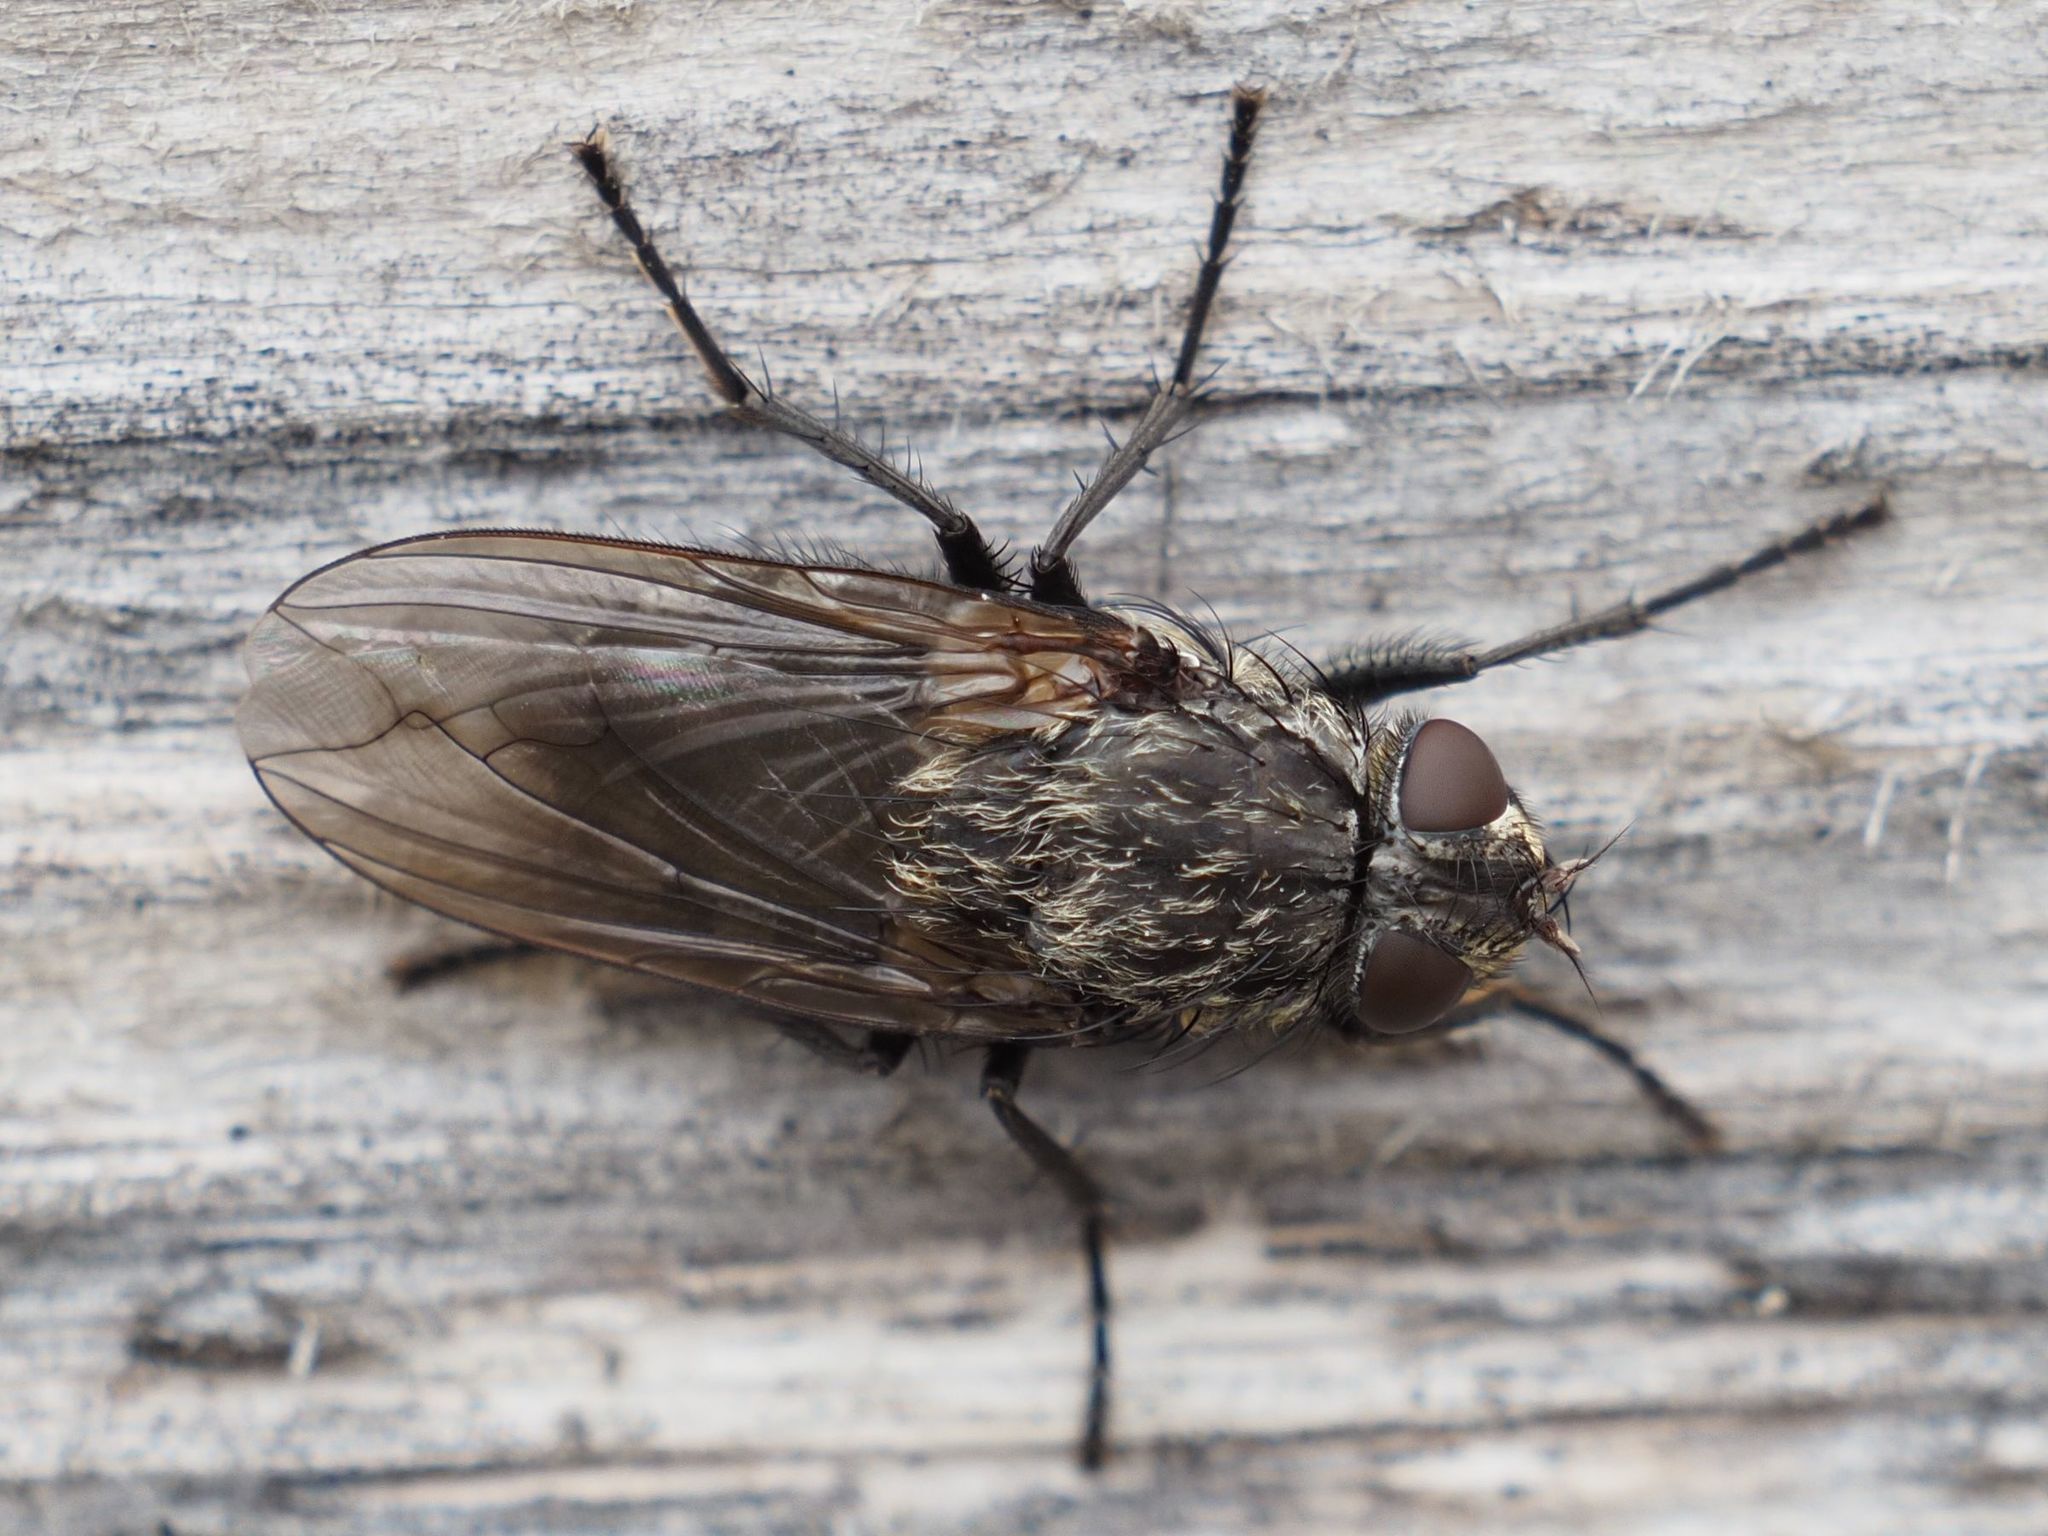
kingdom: Animalia
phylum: Arthropoda
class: Insecta
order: Diptera
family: Polleniidae
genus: Pollenia
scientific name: Pollenia vagabunda
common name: Vagabund cluster fly
